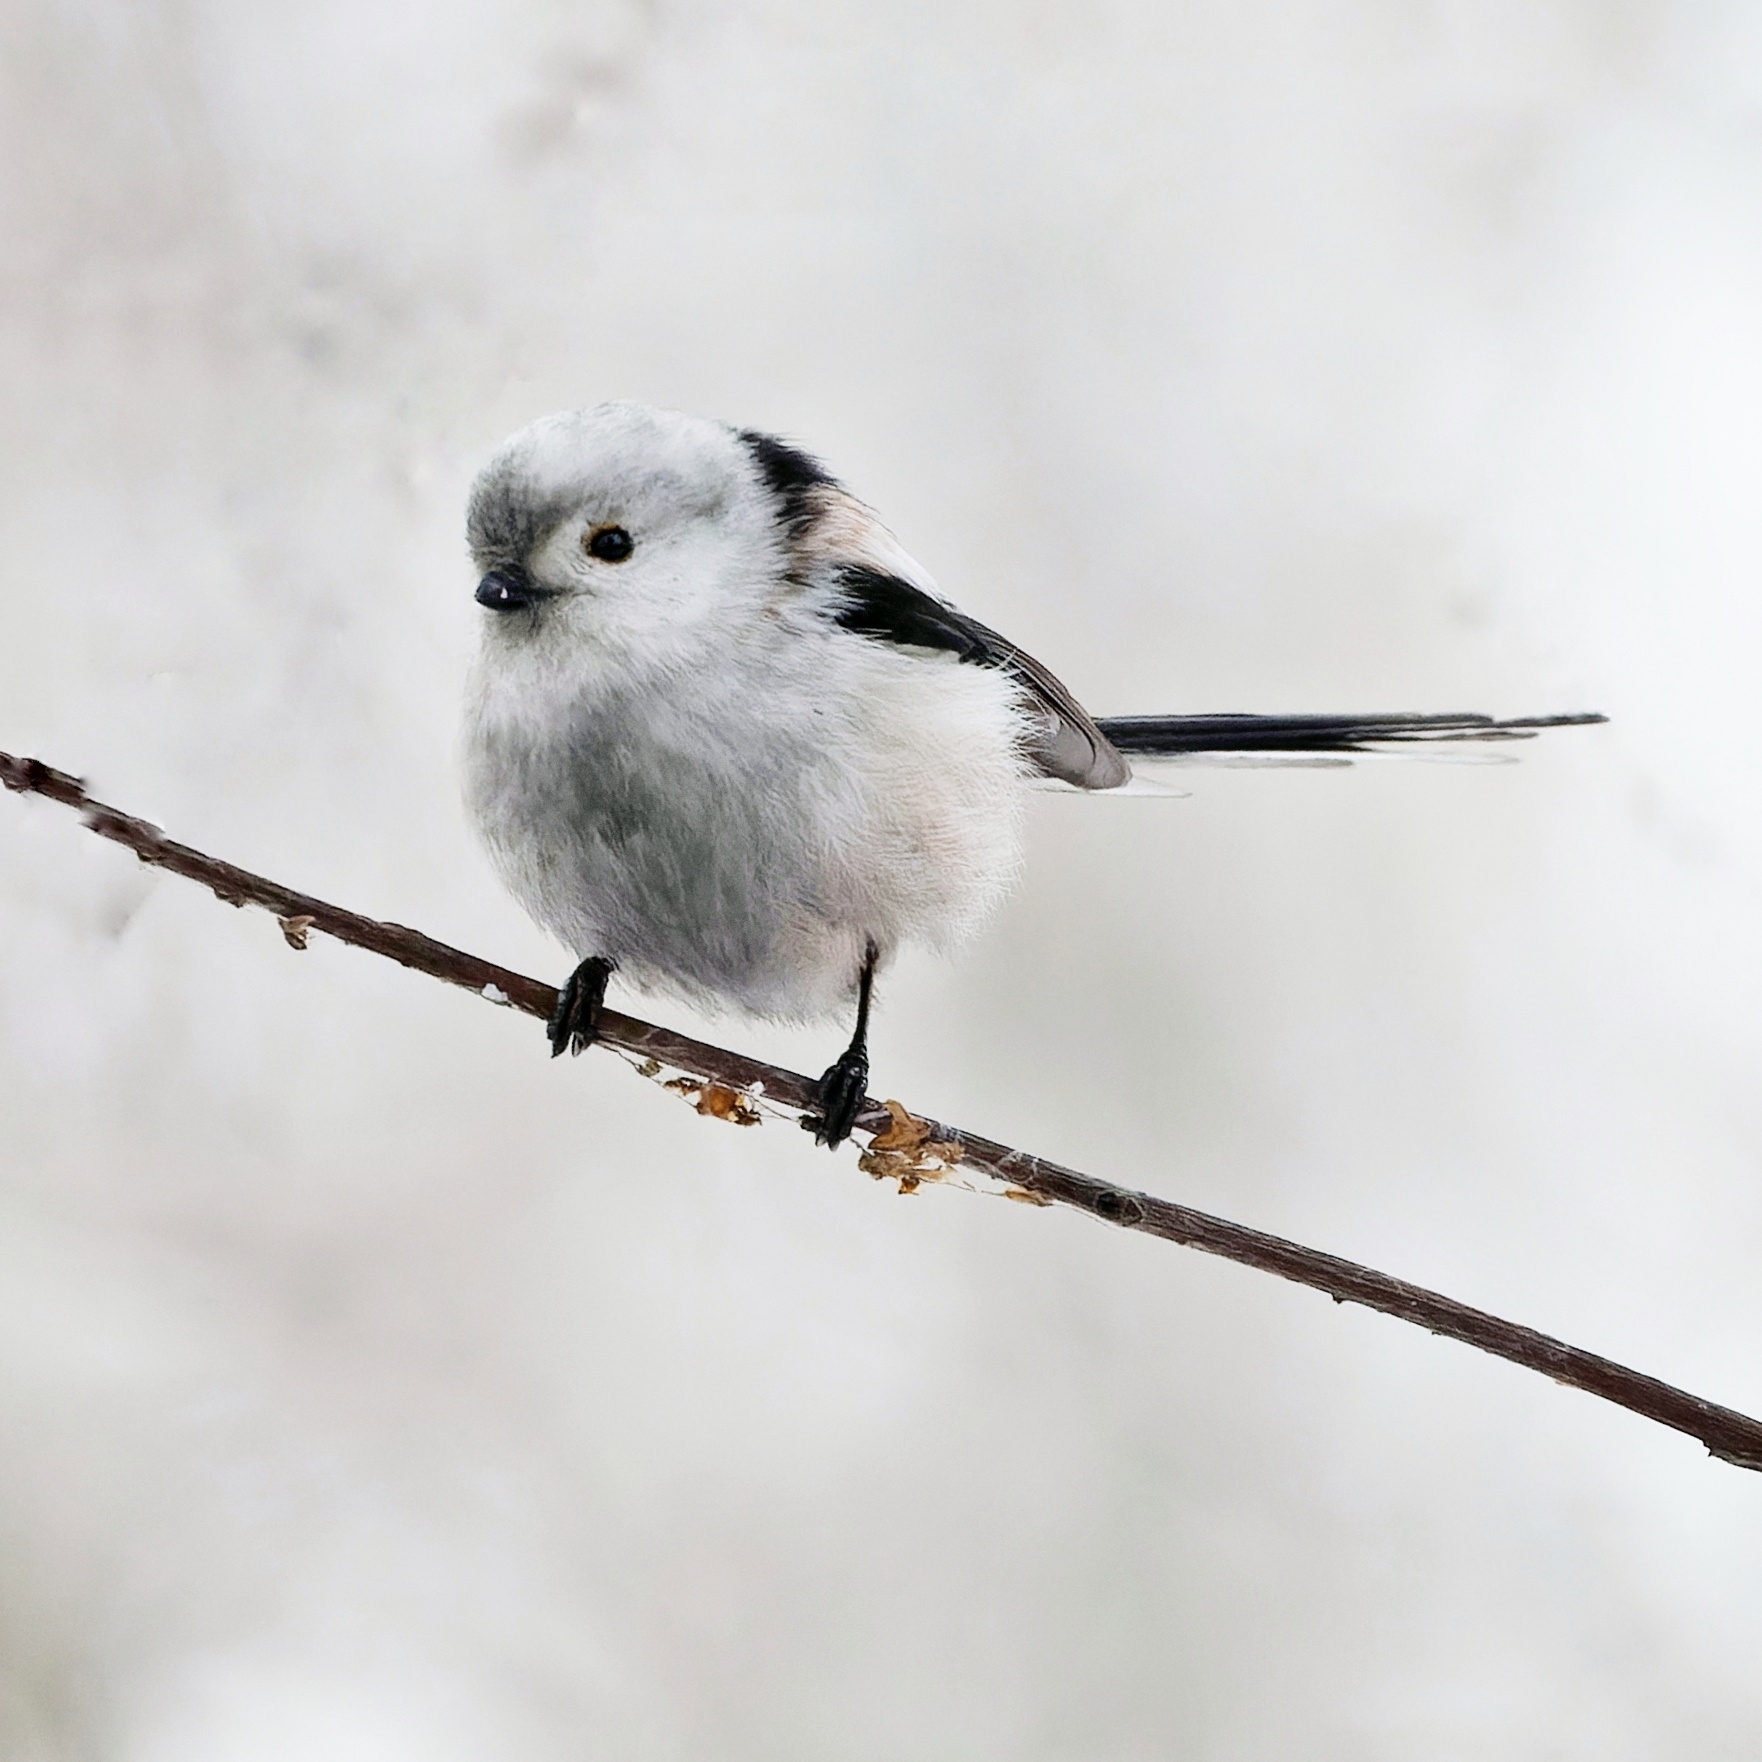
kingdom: Animalia
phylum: Chordata
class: Aves
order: Passeriformes
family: Aegithalidae
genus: Aegithalos
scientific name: Aegithalos caudatus
